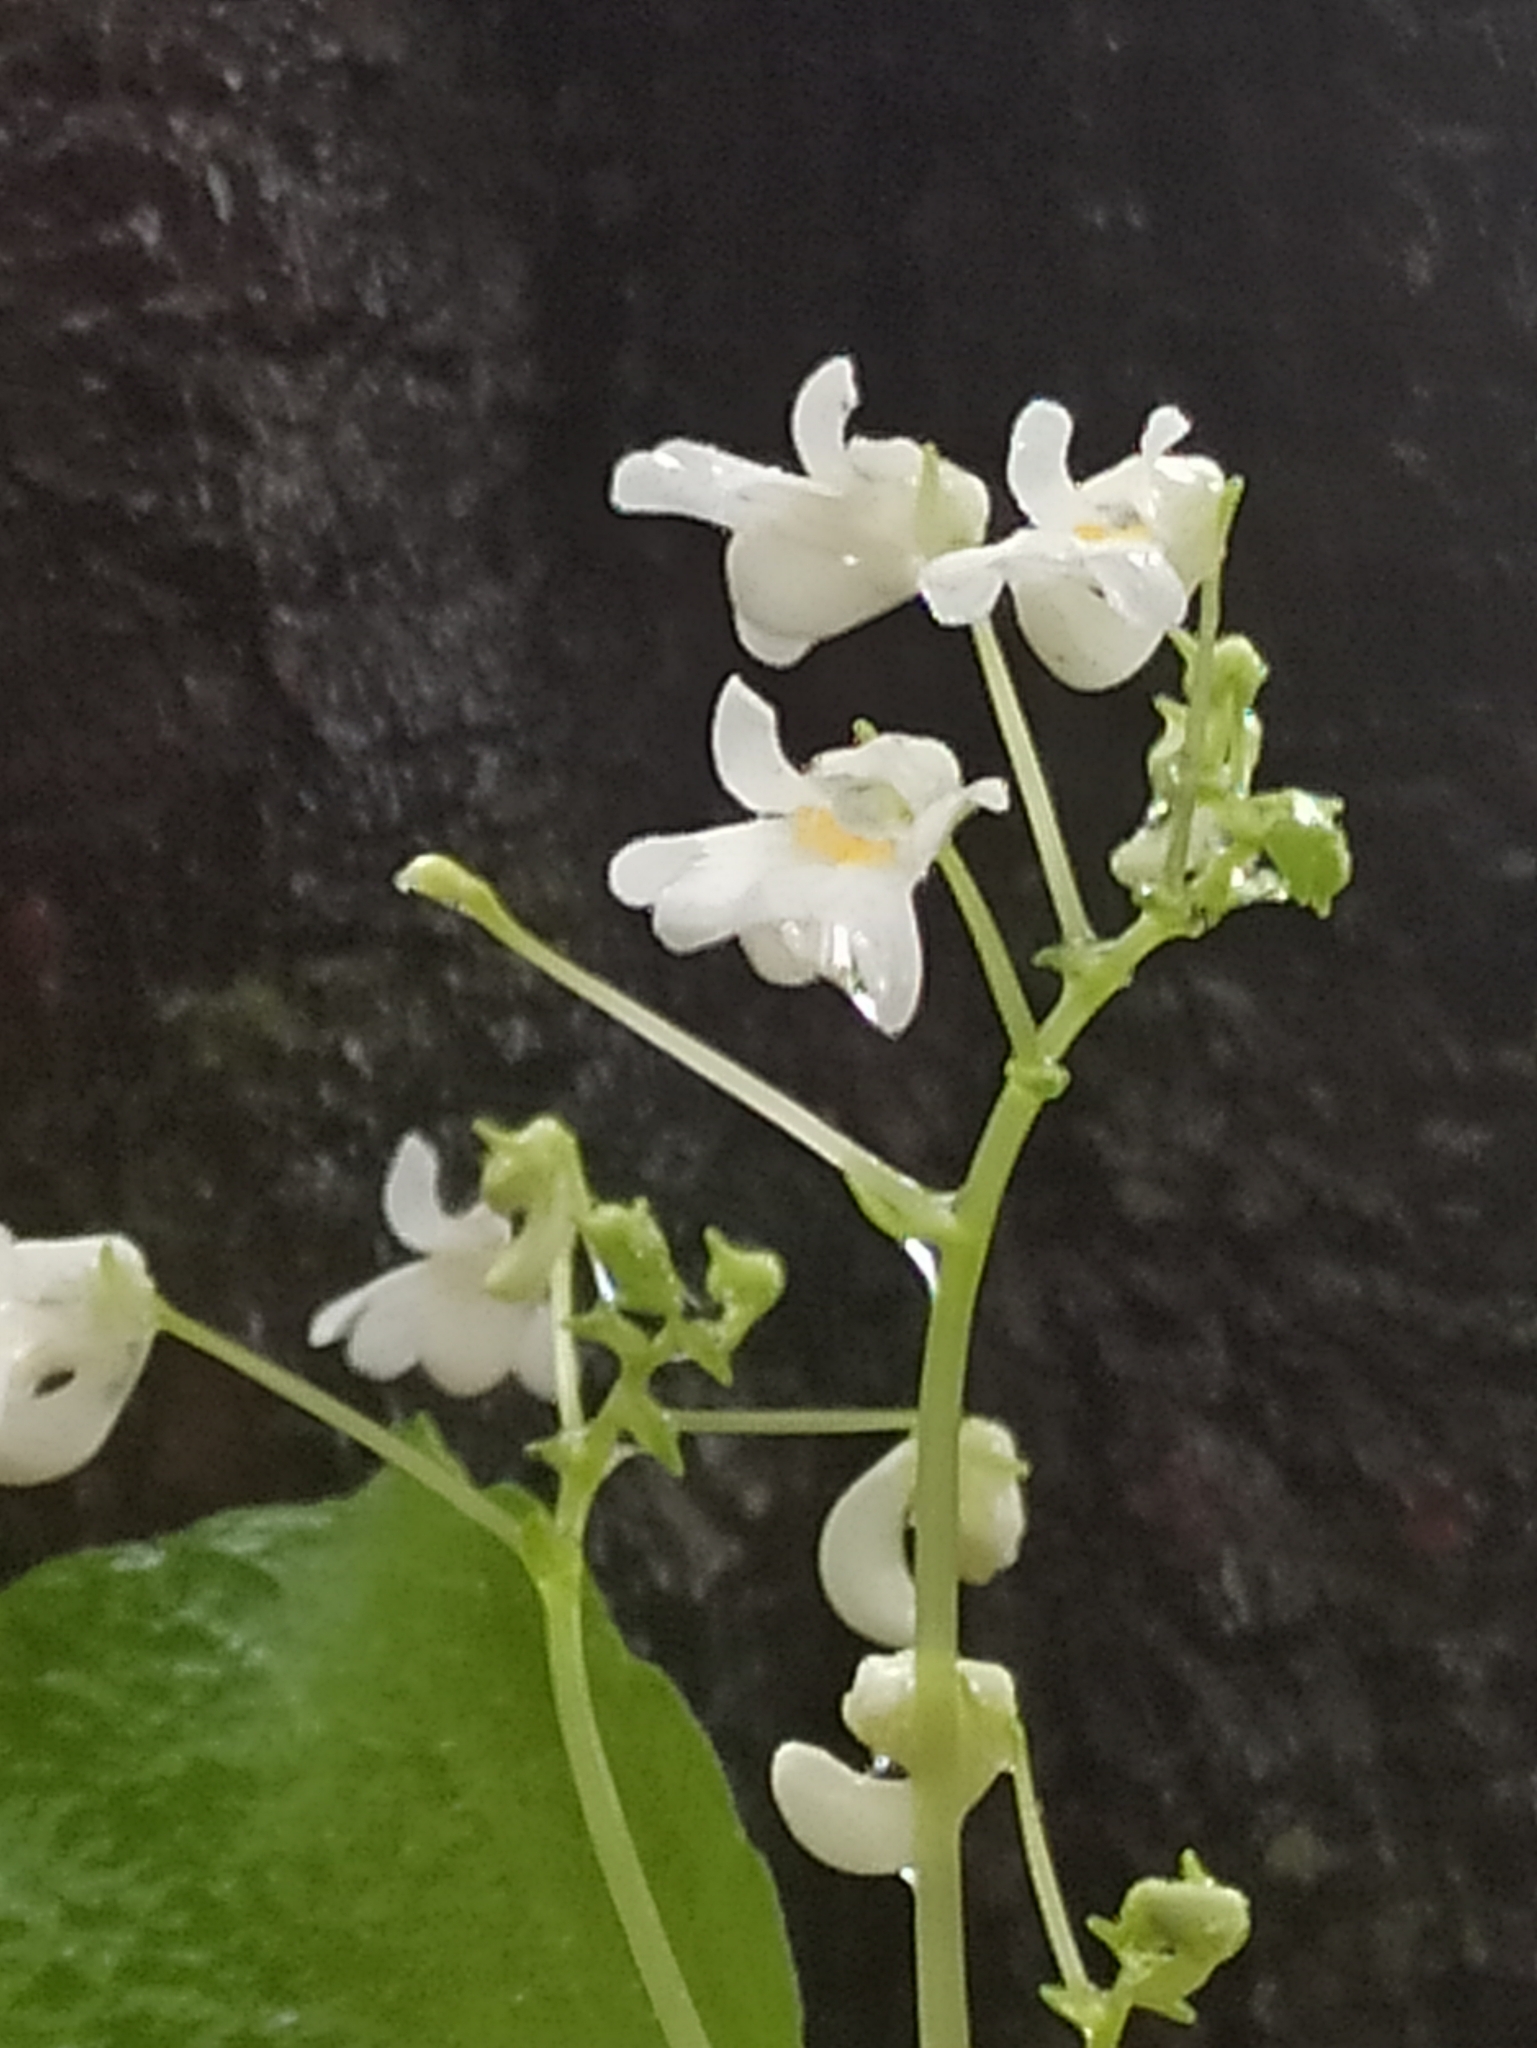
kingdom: Plantae
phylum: Tracheophyta
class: Magnoliopsida
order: Ericales
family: Balsaminaceae
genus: Impatiens
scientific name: Impatiens dendricola
